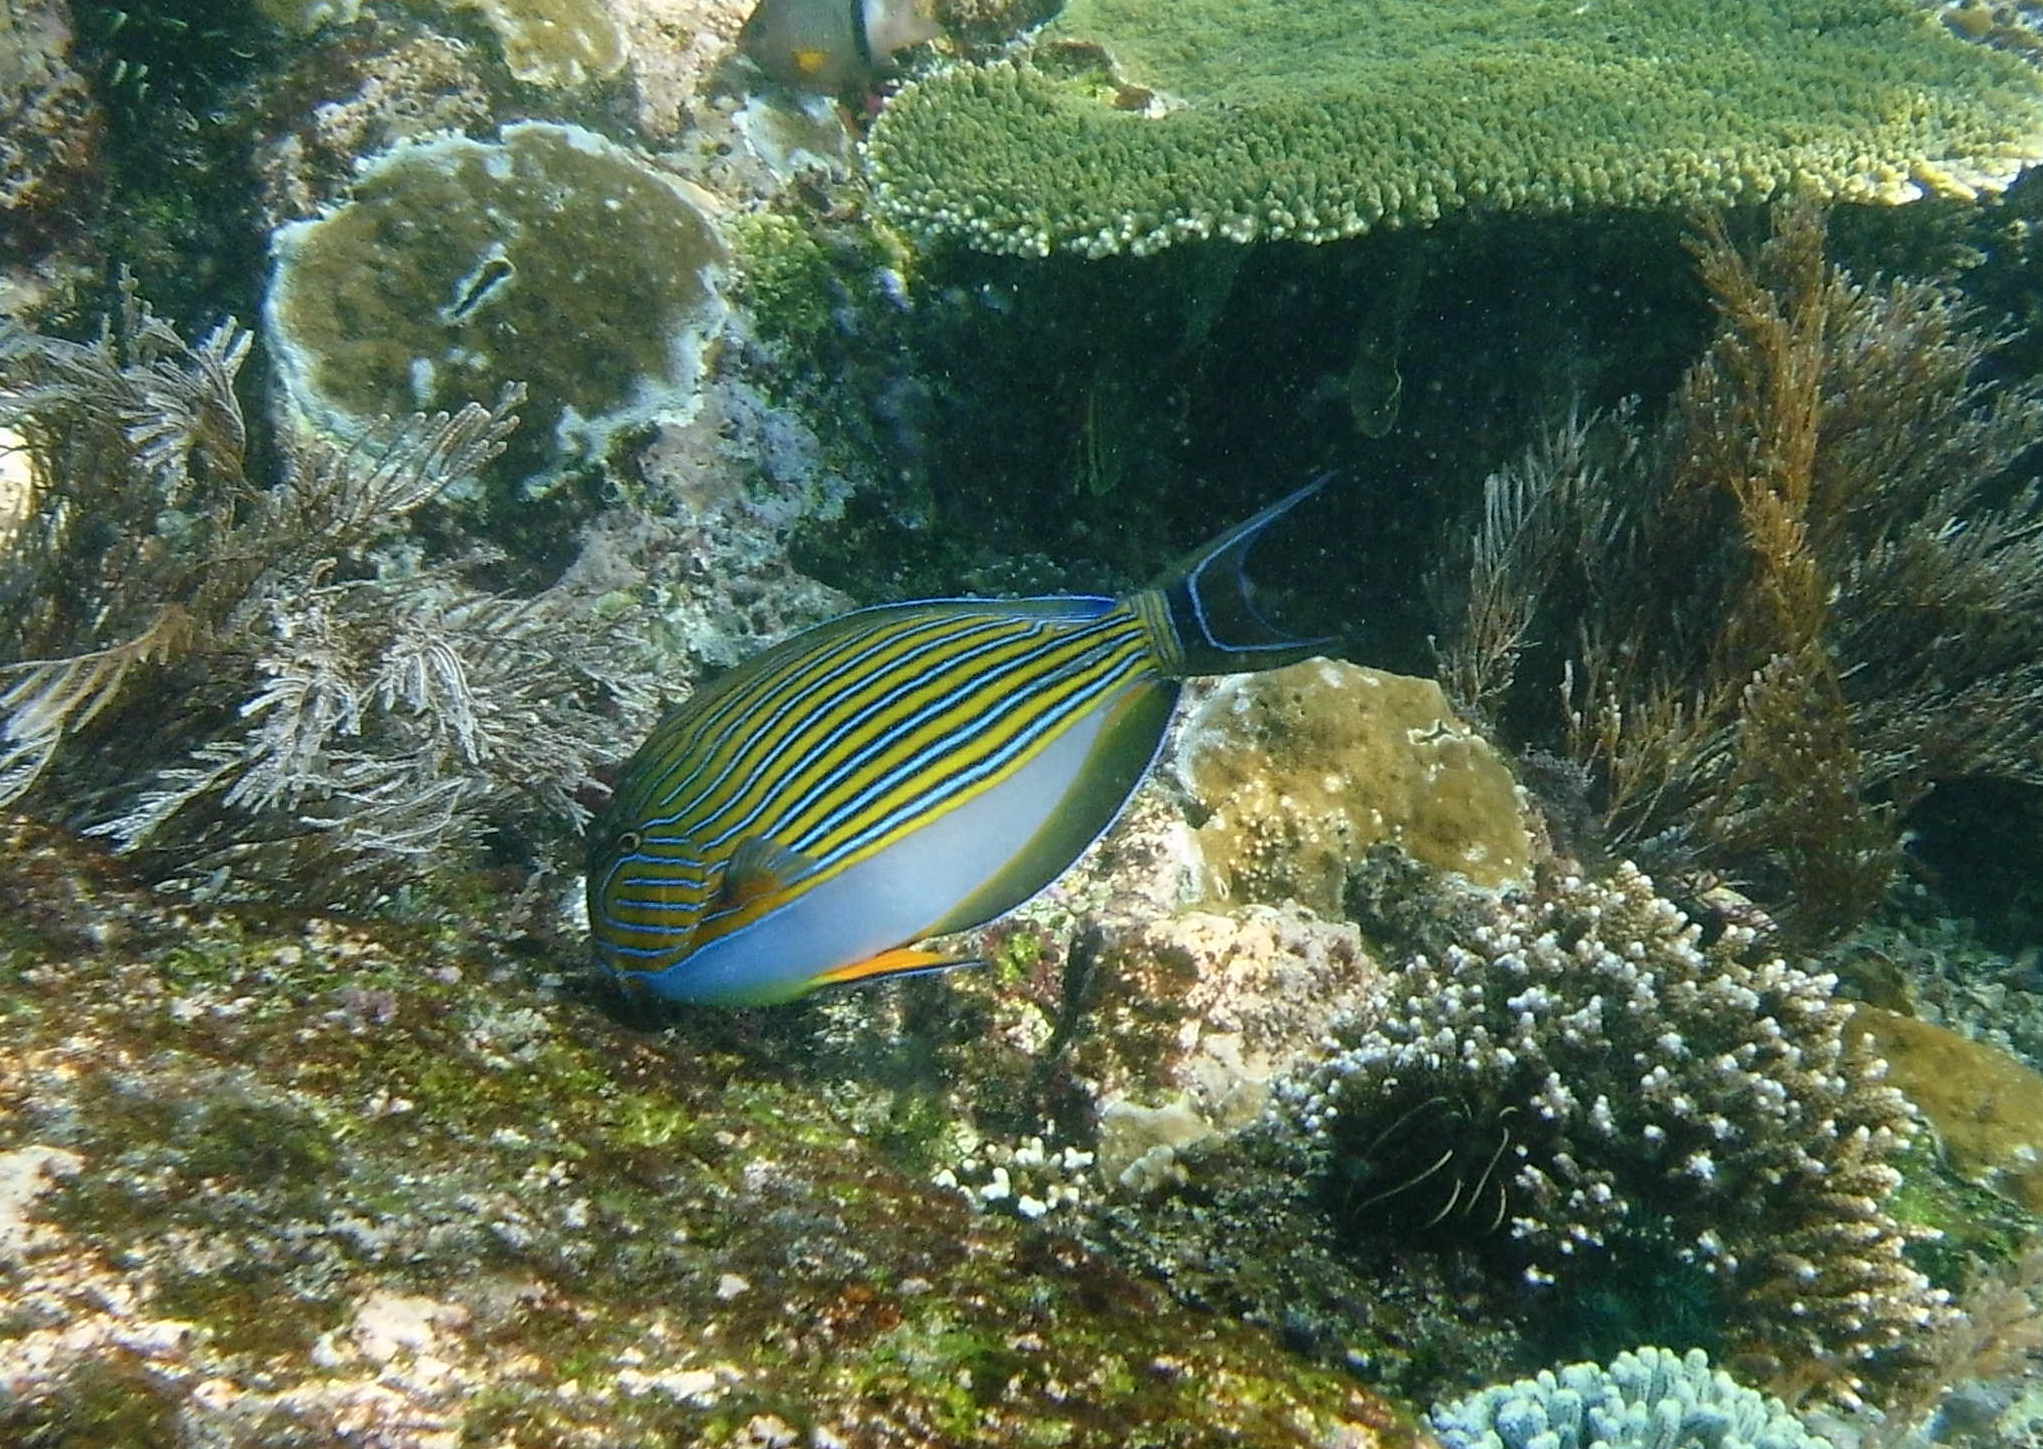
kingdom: Animalia
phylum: Chordata
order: Perciformes
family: Acanthuridae
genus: Acanthurus
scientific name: Acanthurus lineatus
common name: Striped surgeonfish
